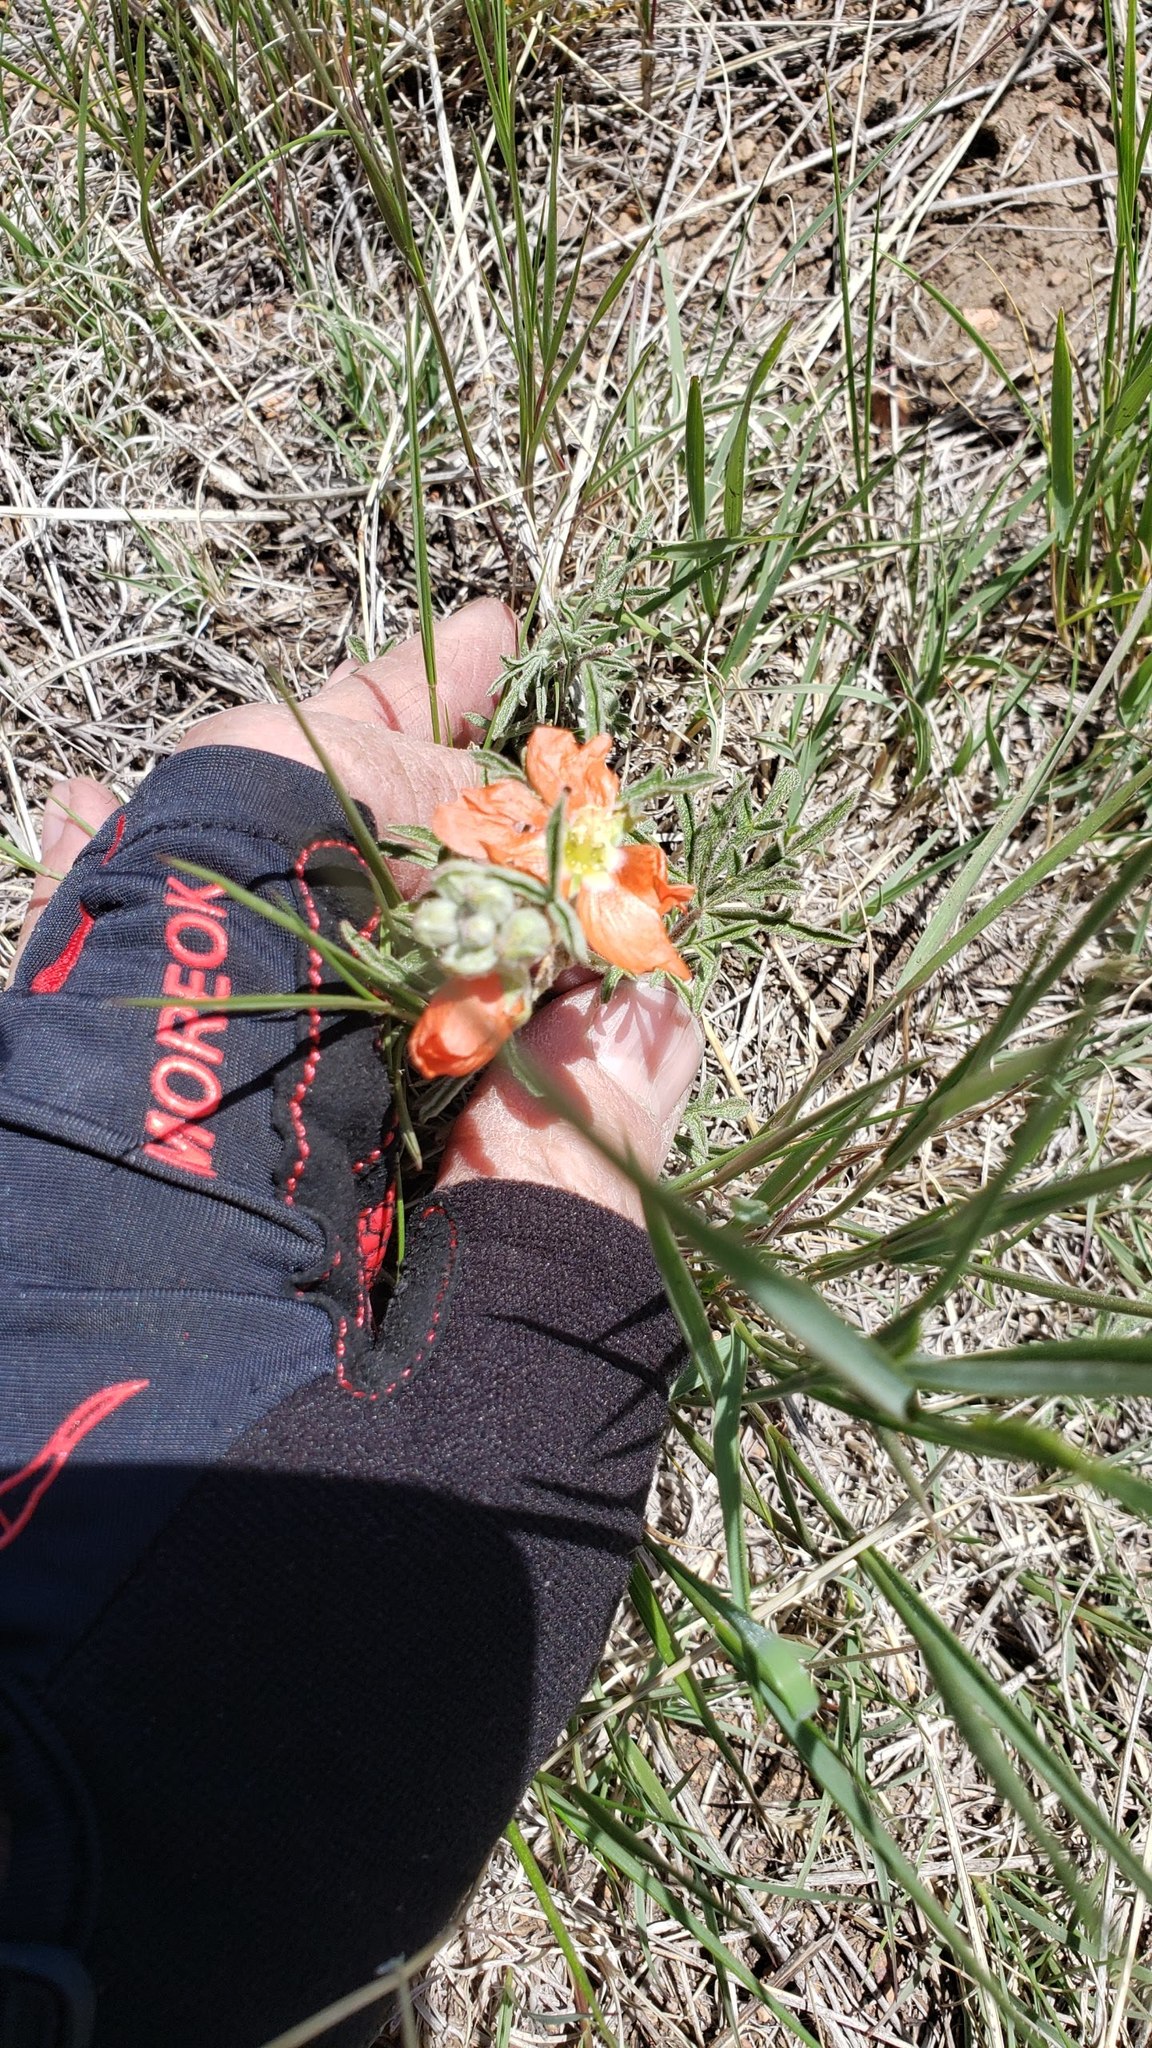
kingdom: Plantae
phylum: Tracheophyta
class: Magnoliopsida
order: Malvales
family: Malvaceae
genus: Sphaeralcea
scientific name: Sphaeralcea coccinea
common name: Moss-rose
